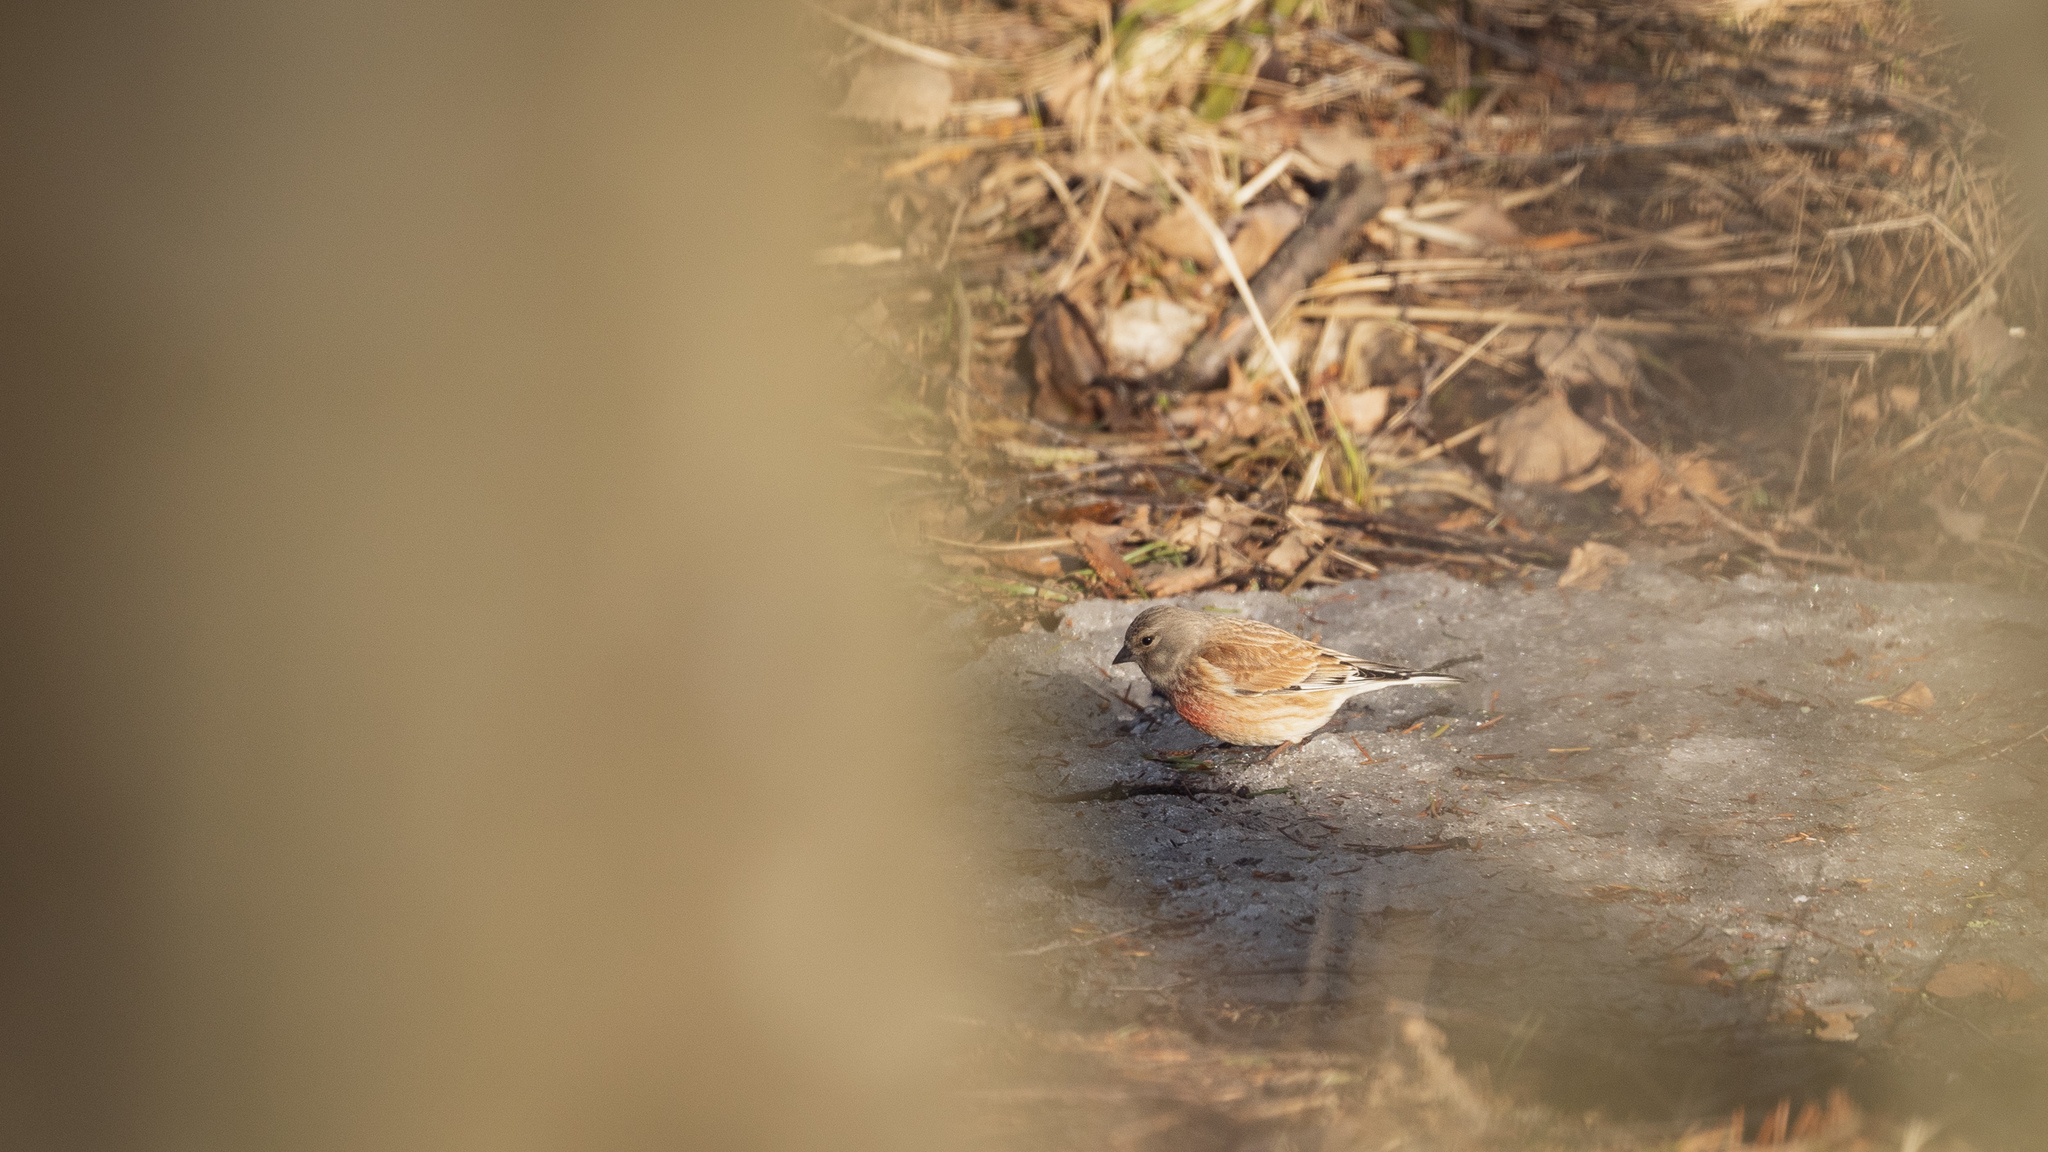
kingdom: Animalia
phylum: Chordata
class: Aves
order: Passeriformes
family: Fringillidae
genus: Linaria
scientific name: Linaria cannabina
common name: Common linnet
